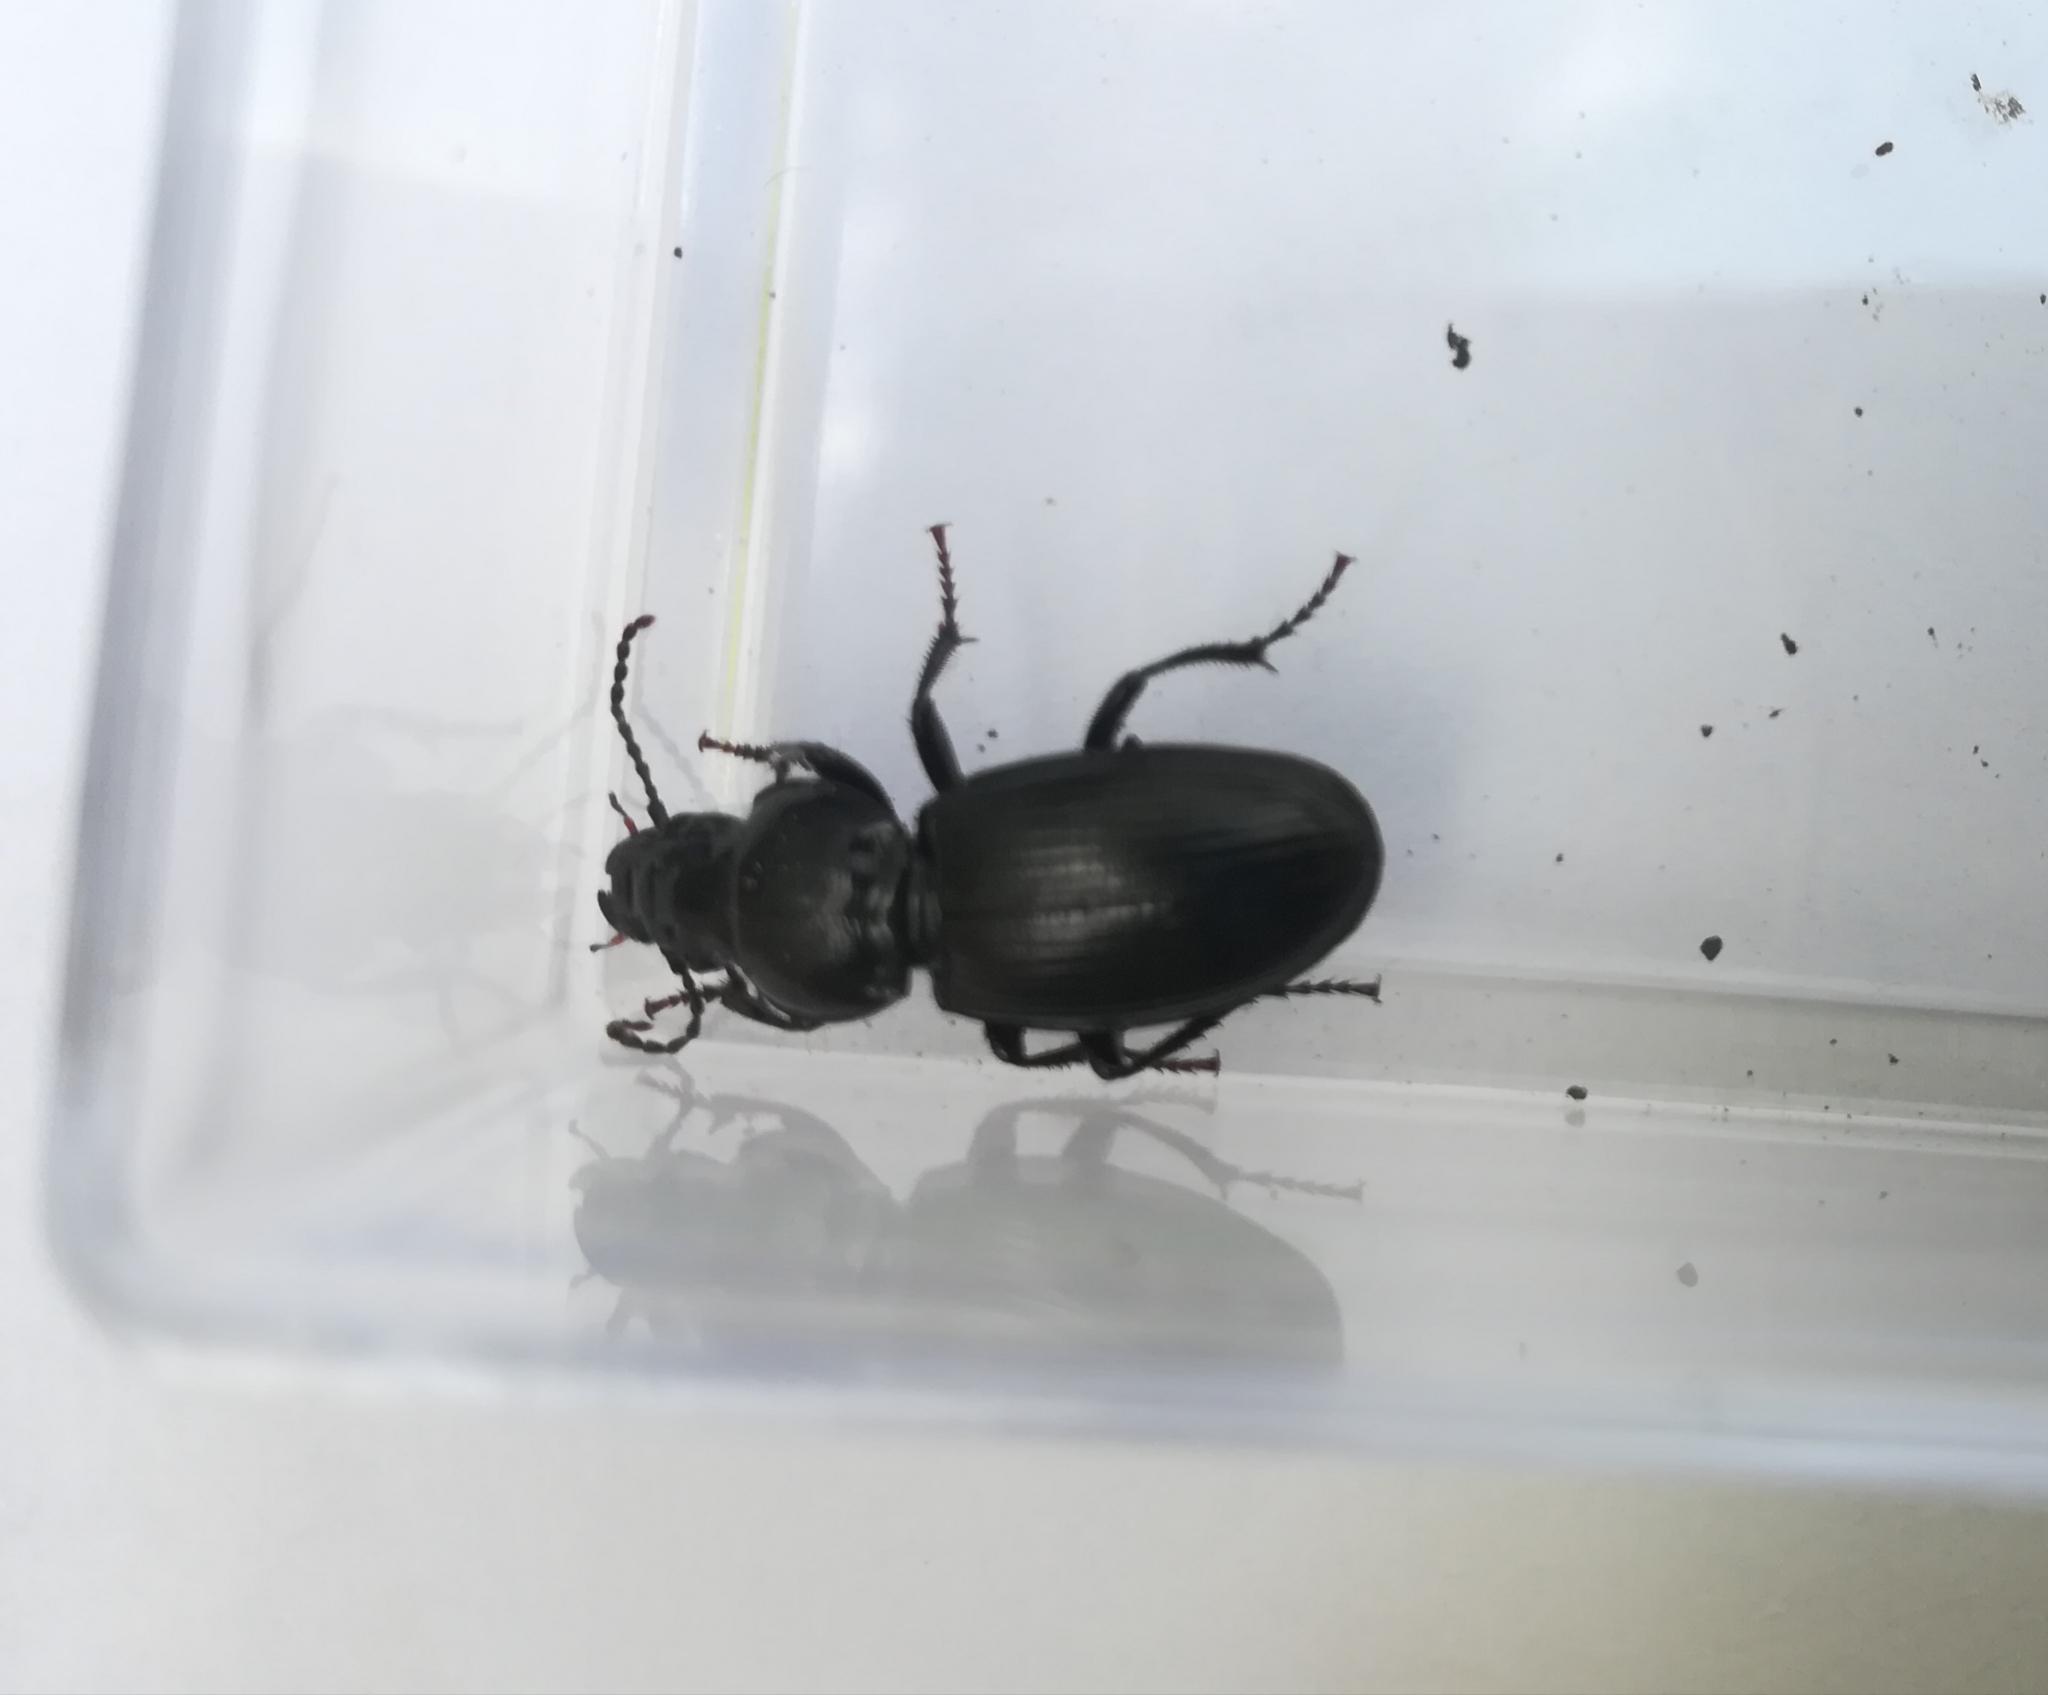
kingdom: Animalia
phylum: Arthropoda
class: Insecta
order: Coleoptera
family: Carabidae
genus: Molops
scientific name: Molops elatus
